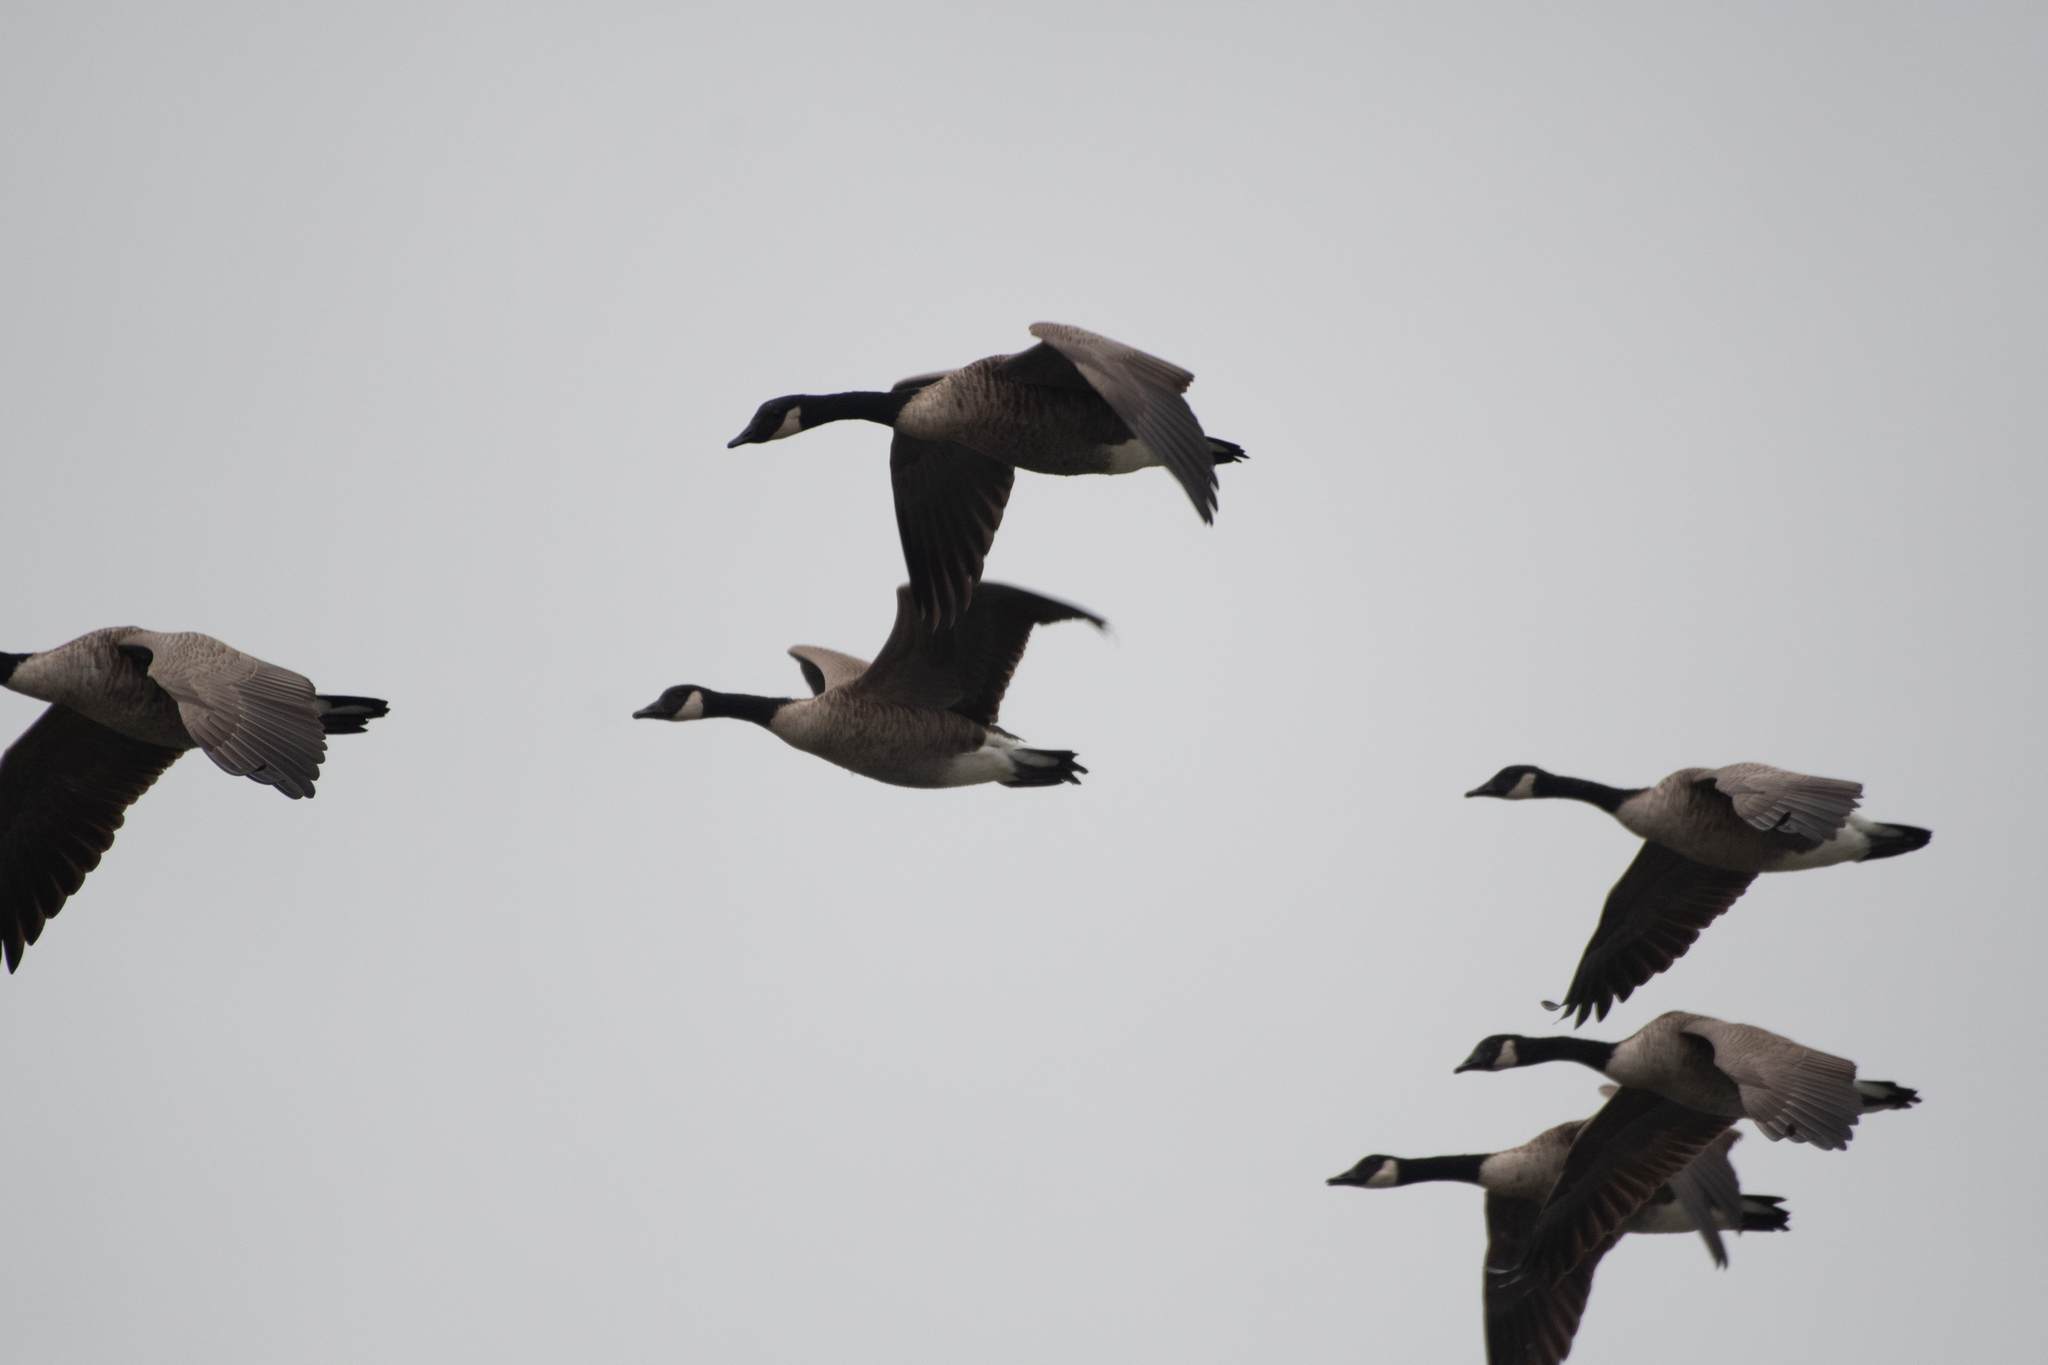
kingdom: Animalia
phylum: Chordata
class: Aves
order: Anseriformes
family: Anatidae
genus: Branta
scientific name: Branta canadensis
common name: Canada goose
